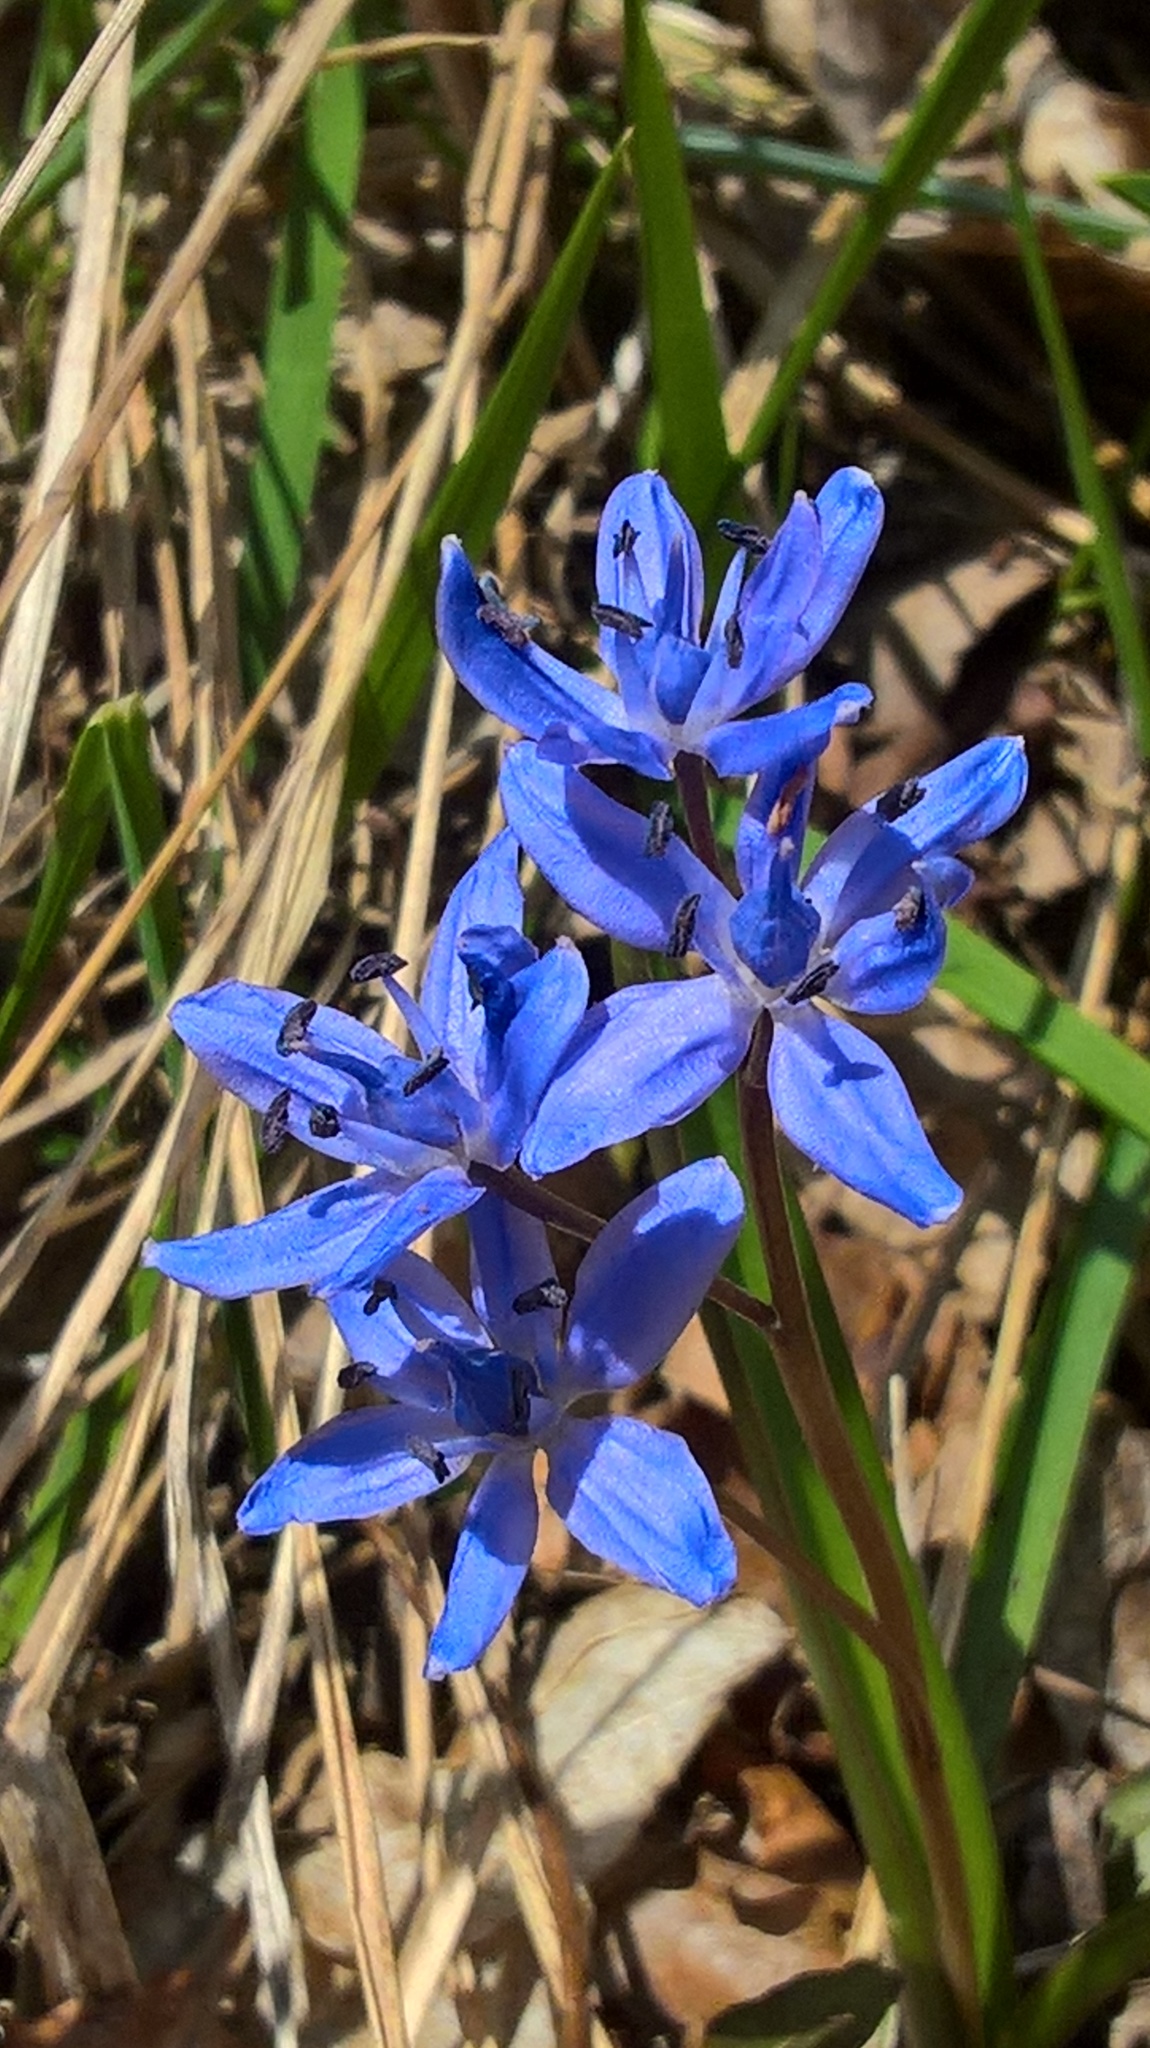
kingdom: Plantae
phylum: Tracheophyta
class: Liliopsida
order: Asparagales
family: Asparagaceae
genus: Scilla
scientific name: Scilla bifolia
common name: Alpine squill
